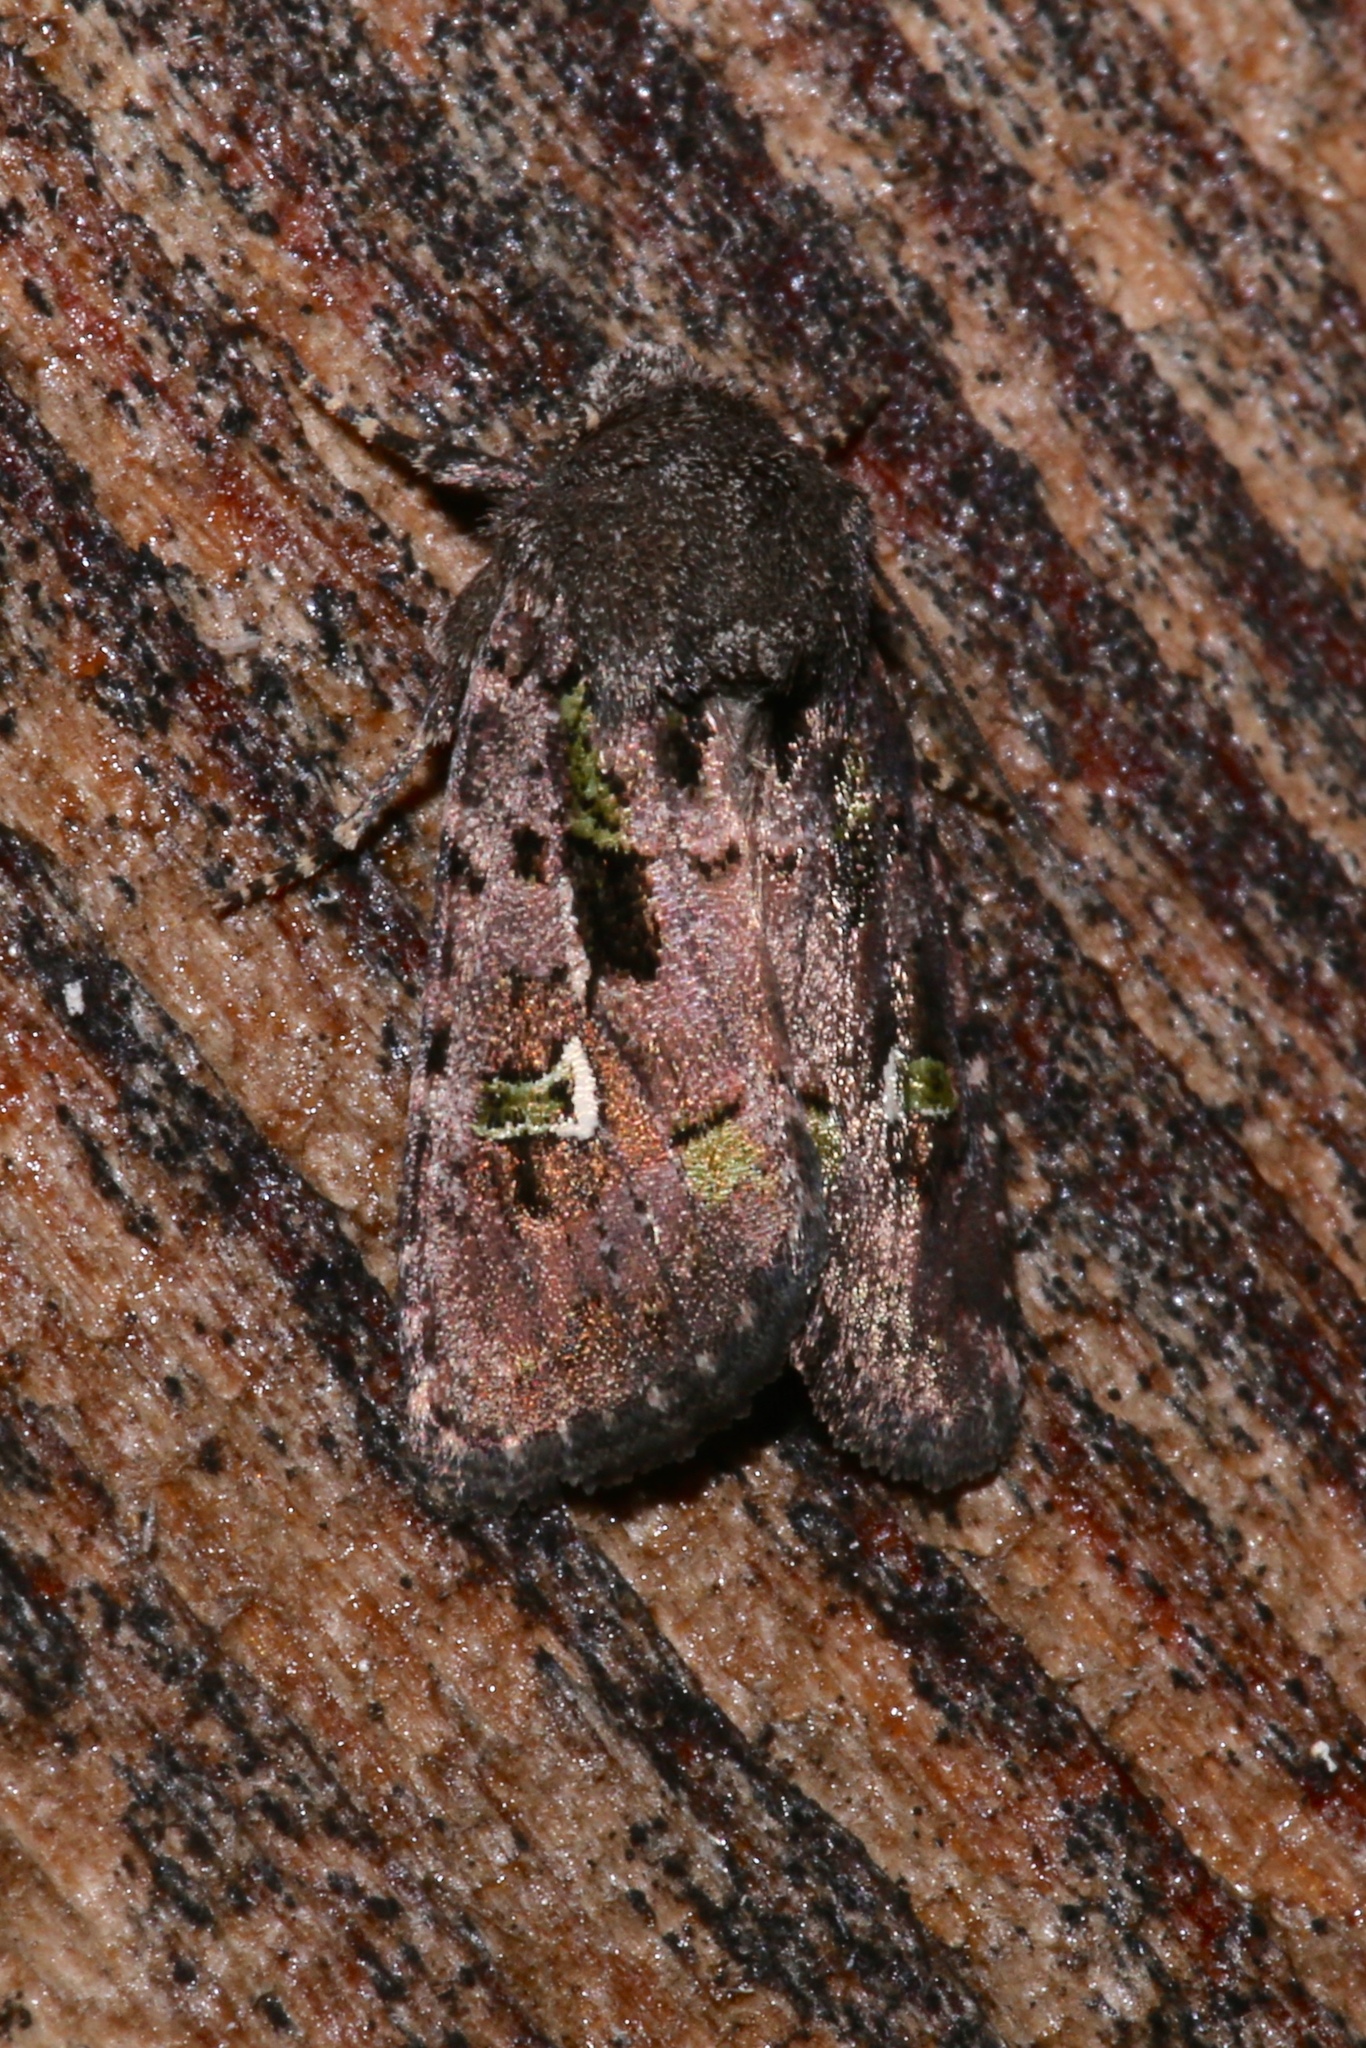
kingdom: Animalia
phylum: Arthropoda
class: Insecta
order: Lepidoptera
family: Noctuidae
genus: Lacinipolia
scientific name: Lacinipolia renigera
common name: Kidney-spotted minor
